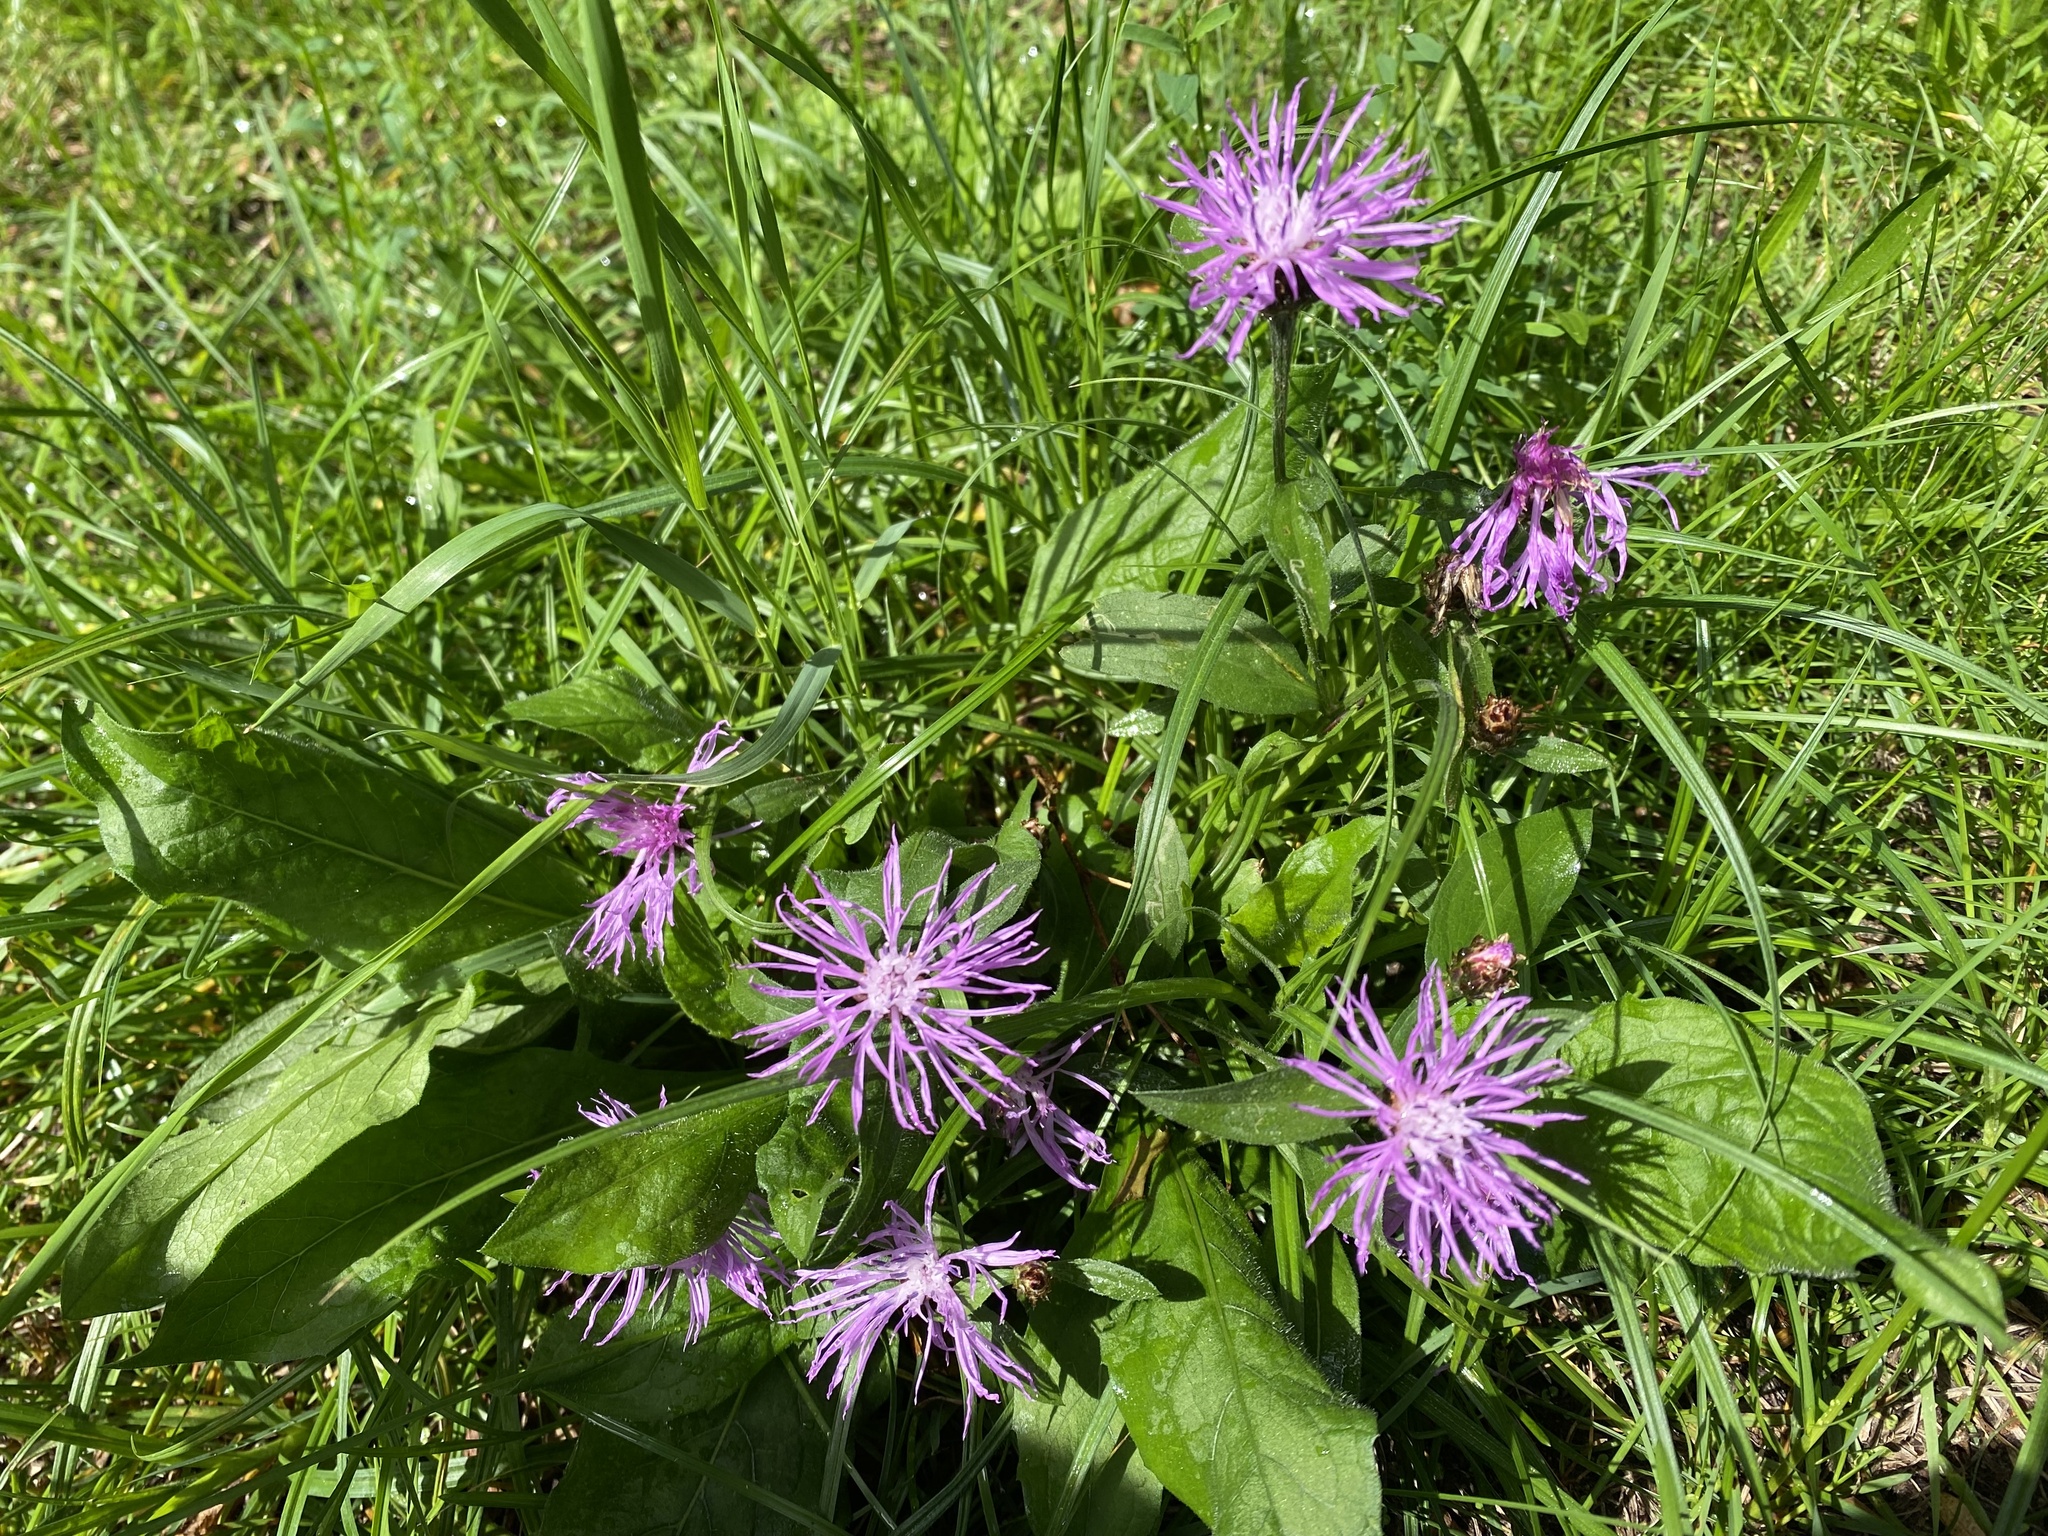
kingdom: Plantae
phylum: Tracheophyta
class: Magnoliopsida
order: Asterales
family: Asteraceae
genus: Centaurea
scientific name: Centaurea jacea
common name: Brown knapweed
